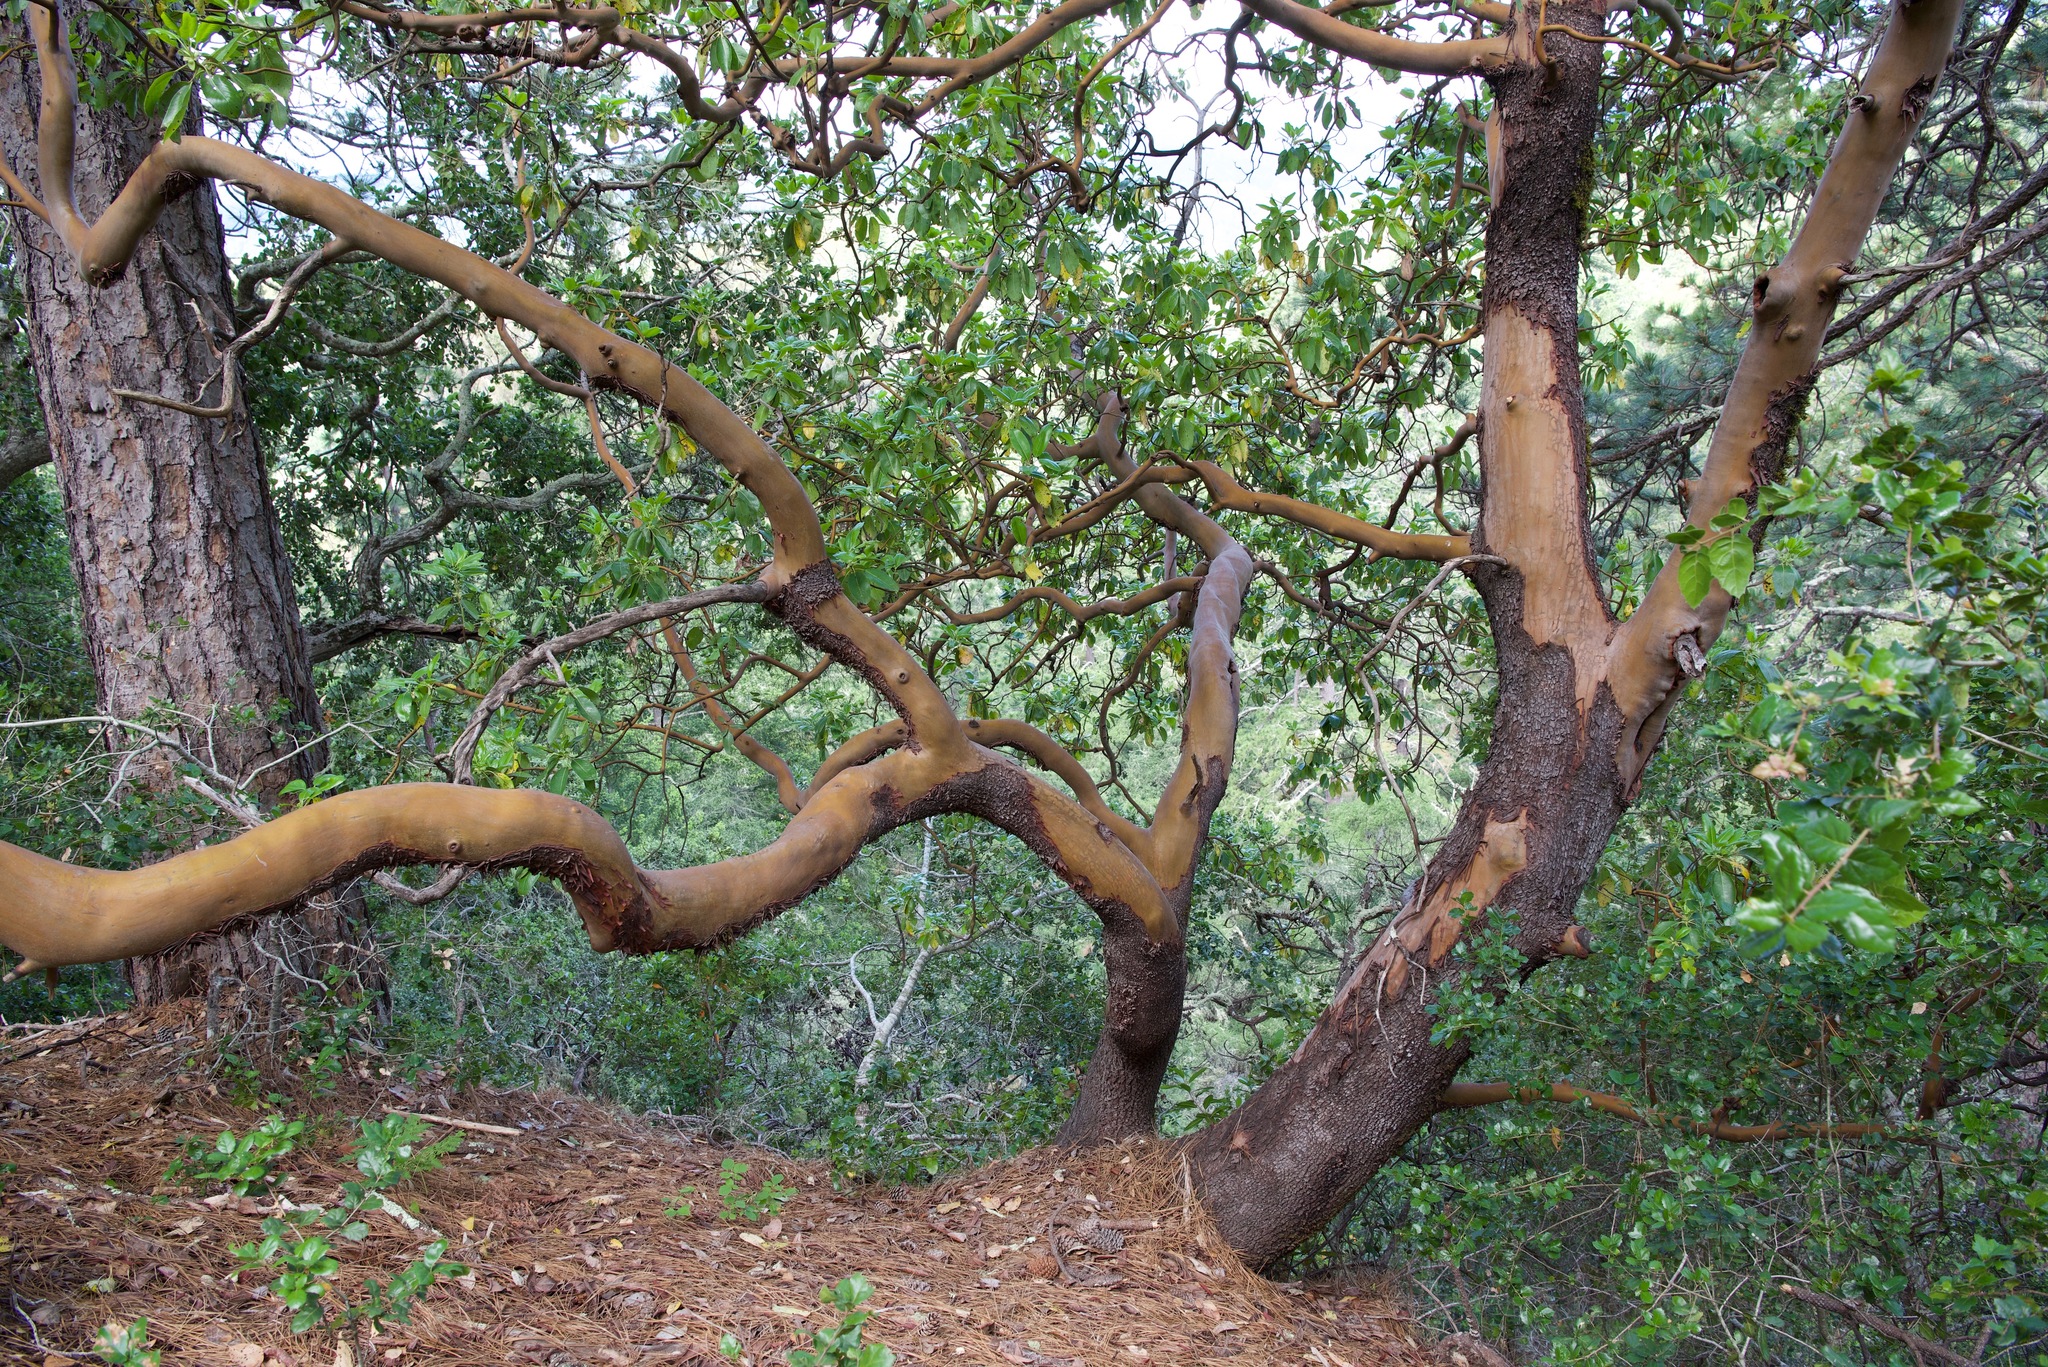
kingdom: Plantae
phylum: Tracheophyta
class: Magnoliopsida
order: Ericales
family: Ericaceae
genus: Arbutus
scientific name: Arbutus menziesii
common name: Pacific madrone
